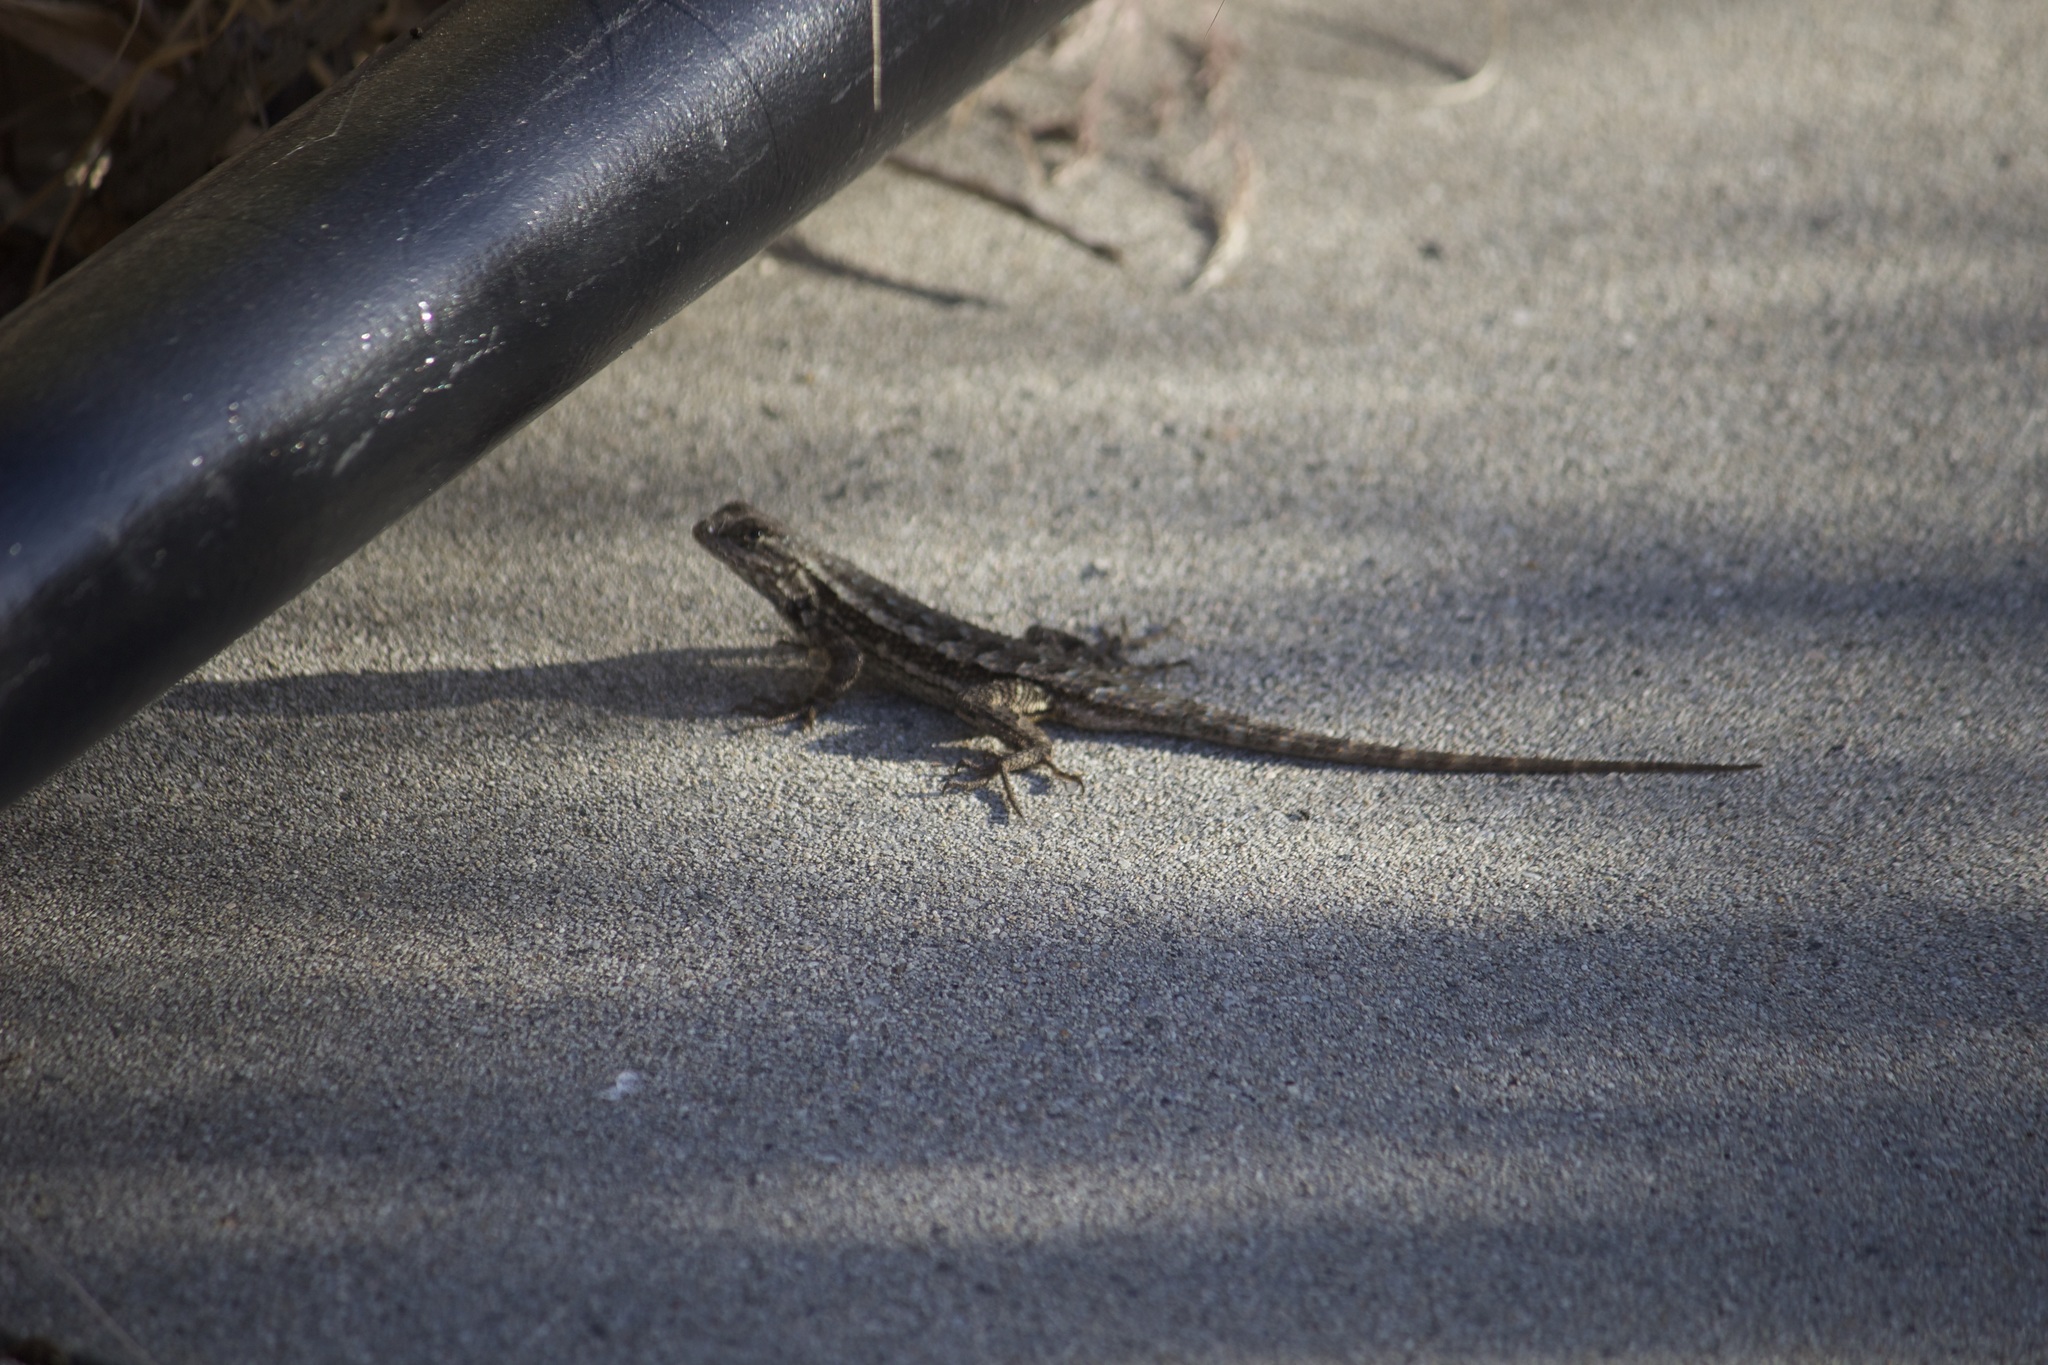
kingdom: Animalia
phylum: Chordata
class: Squamata
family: Phrynosomatidae
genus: Sceloporus
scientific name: Sceloporus occidentalis
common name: Western fence lizard
